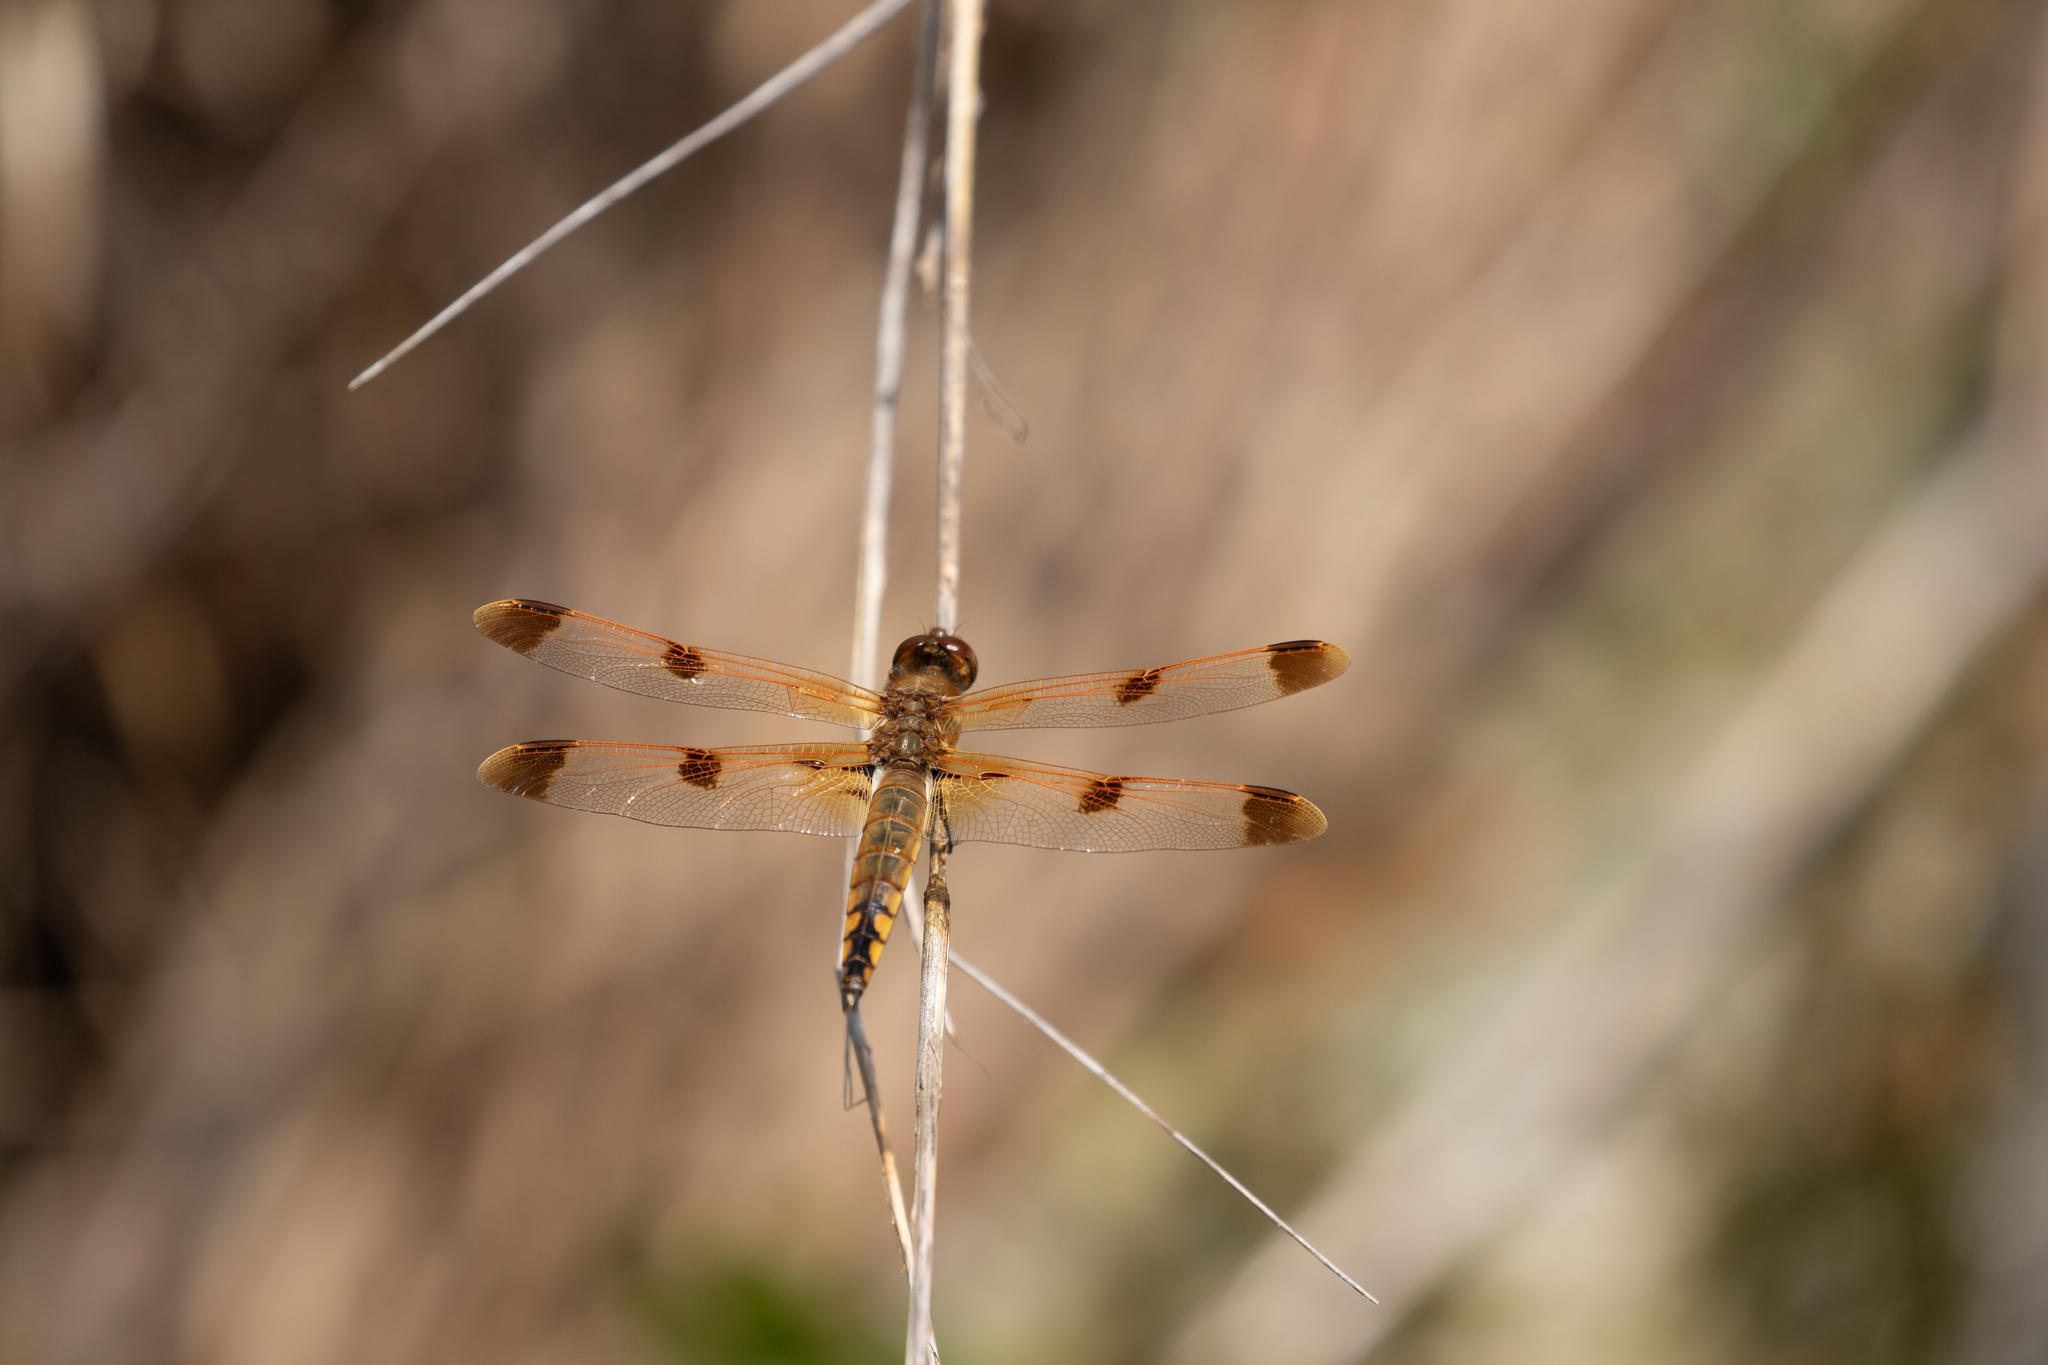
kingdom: Animalia
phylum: Arthropoda
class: Insecta
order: Odonata
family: Libellulidae
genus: Libellula
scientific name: Libellula semifasciata
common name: Painted skimmer
